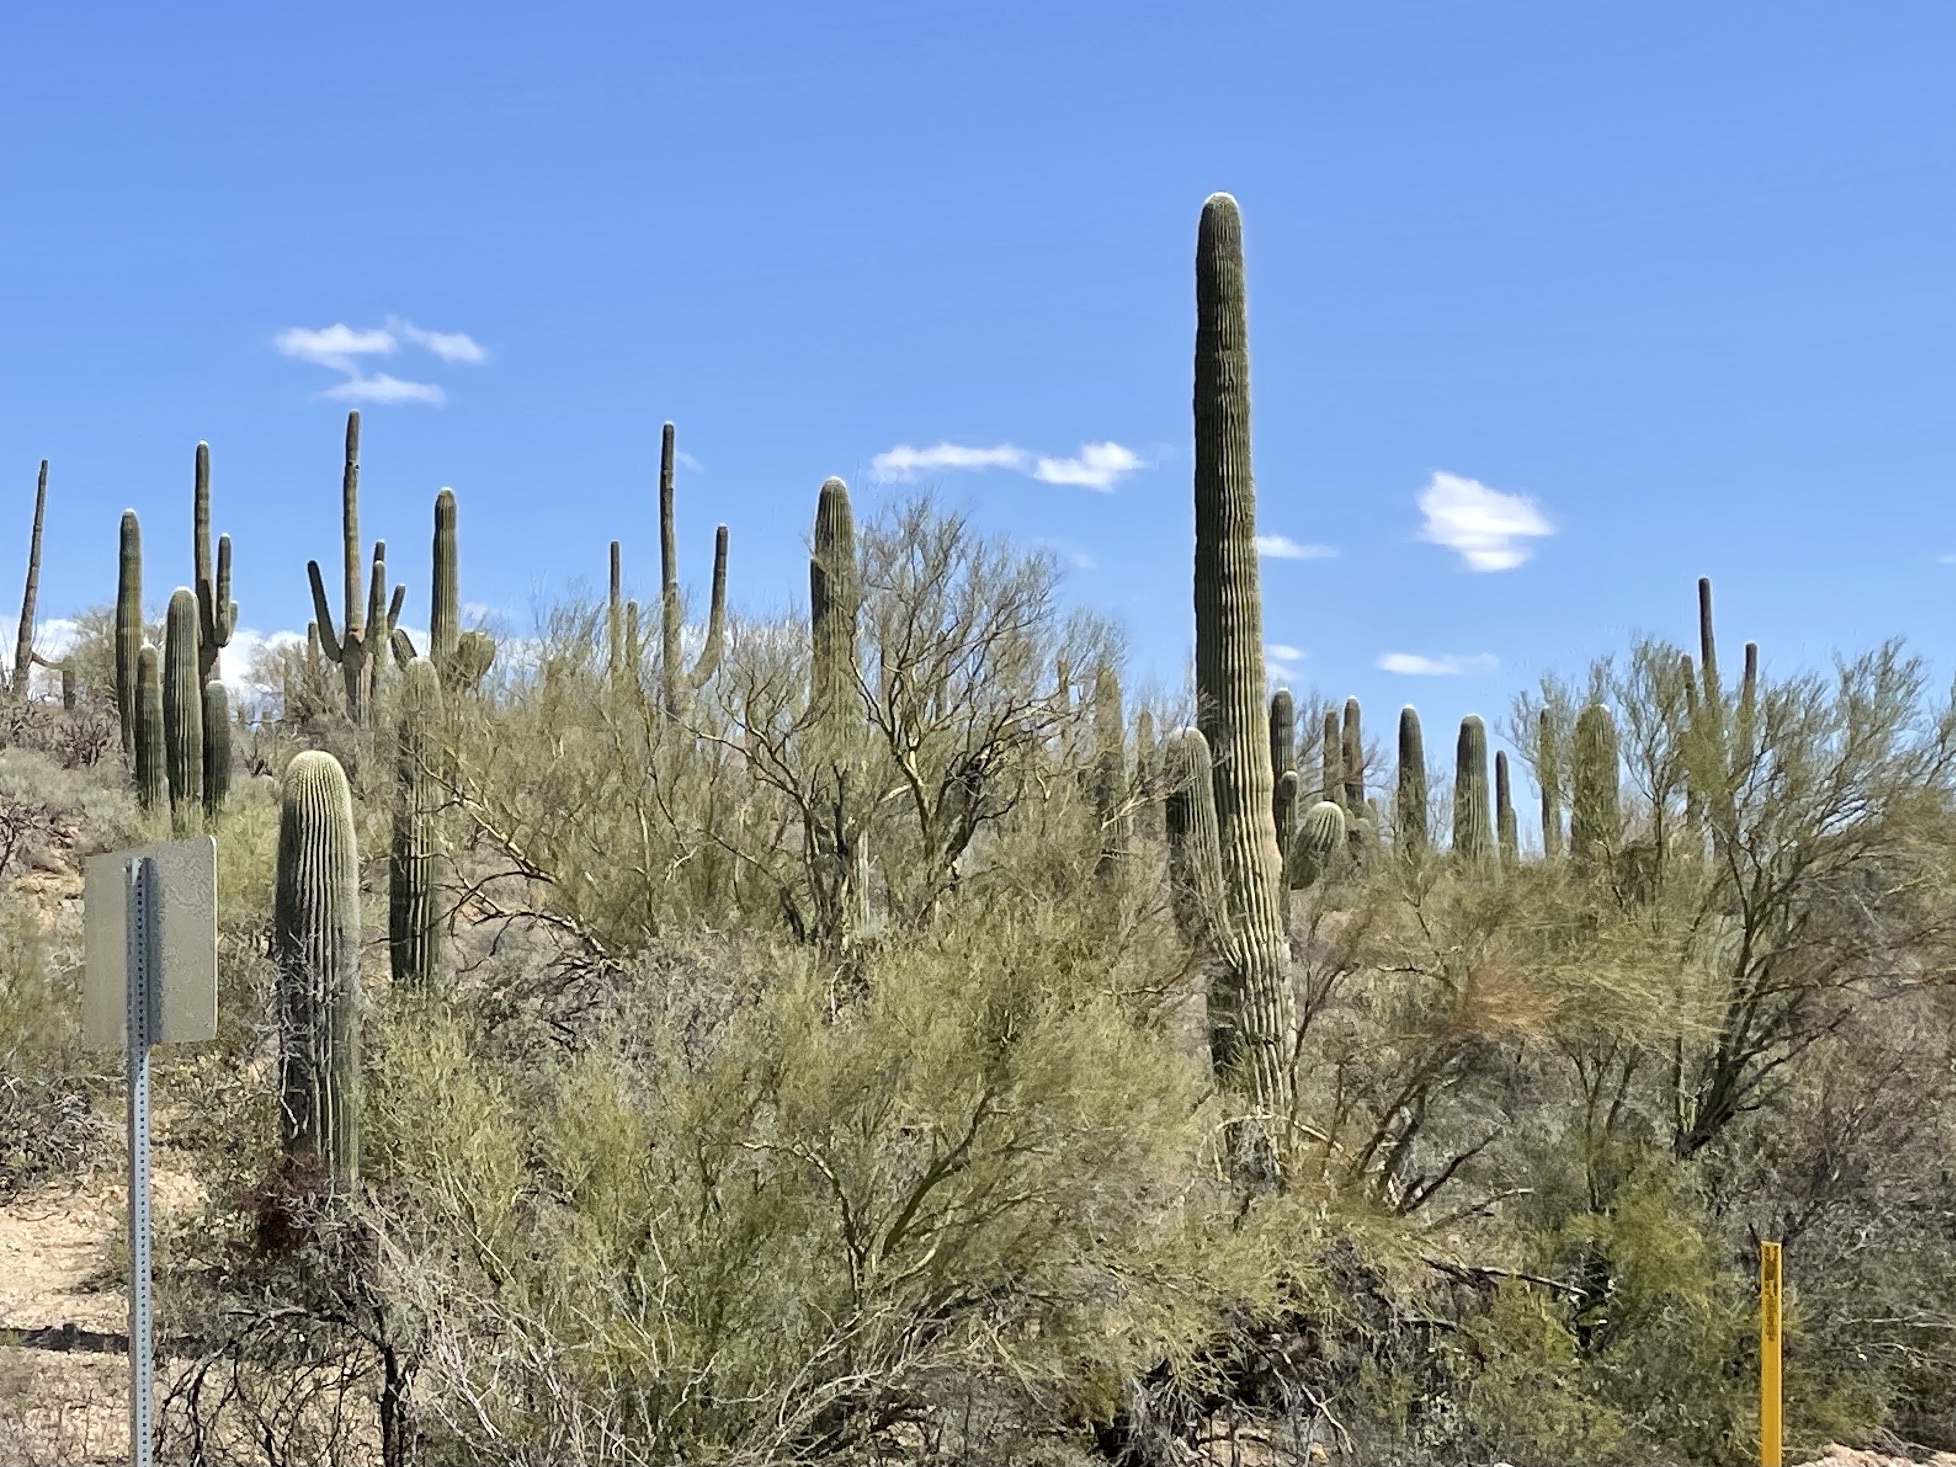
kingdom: Plantae
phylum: Tracheophyta
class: Magnoliopsida
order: Caryophyllales
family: Cactaceae
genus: Carnegiea
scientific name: Carnegiea gigantea
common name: Saguaro
